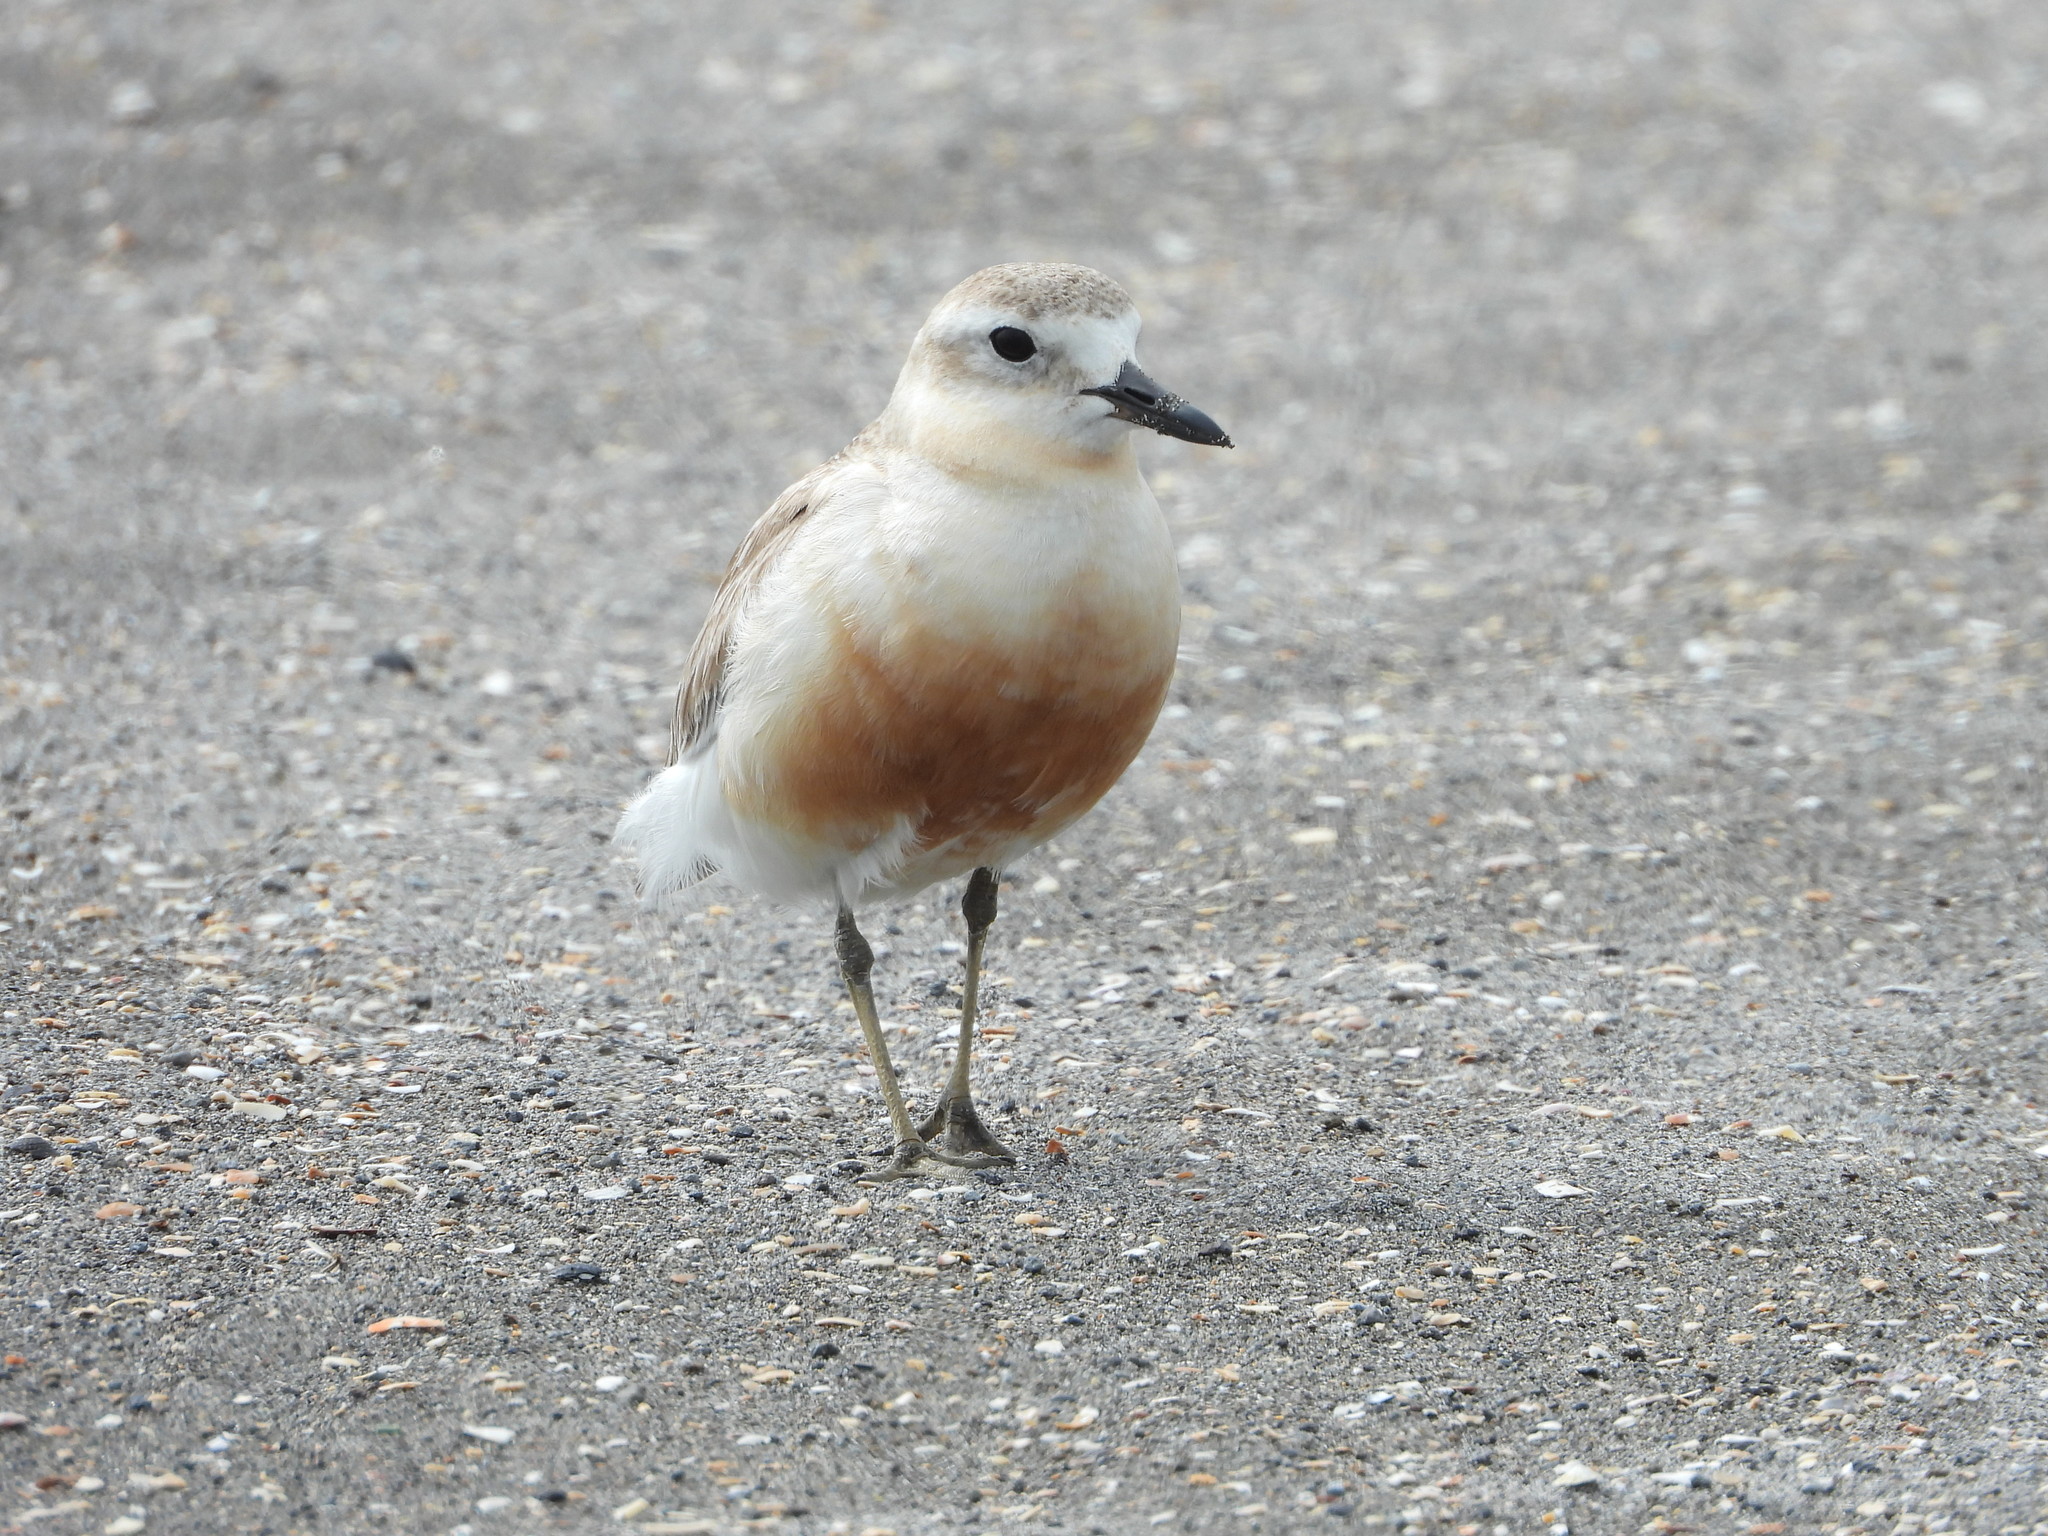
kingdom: Animalia
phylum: Chordata
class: Aves
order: Charadriiformes
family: Charadriidae
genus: Anarhynchus
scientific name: Anarhynchus
